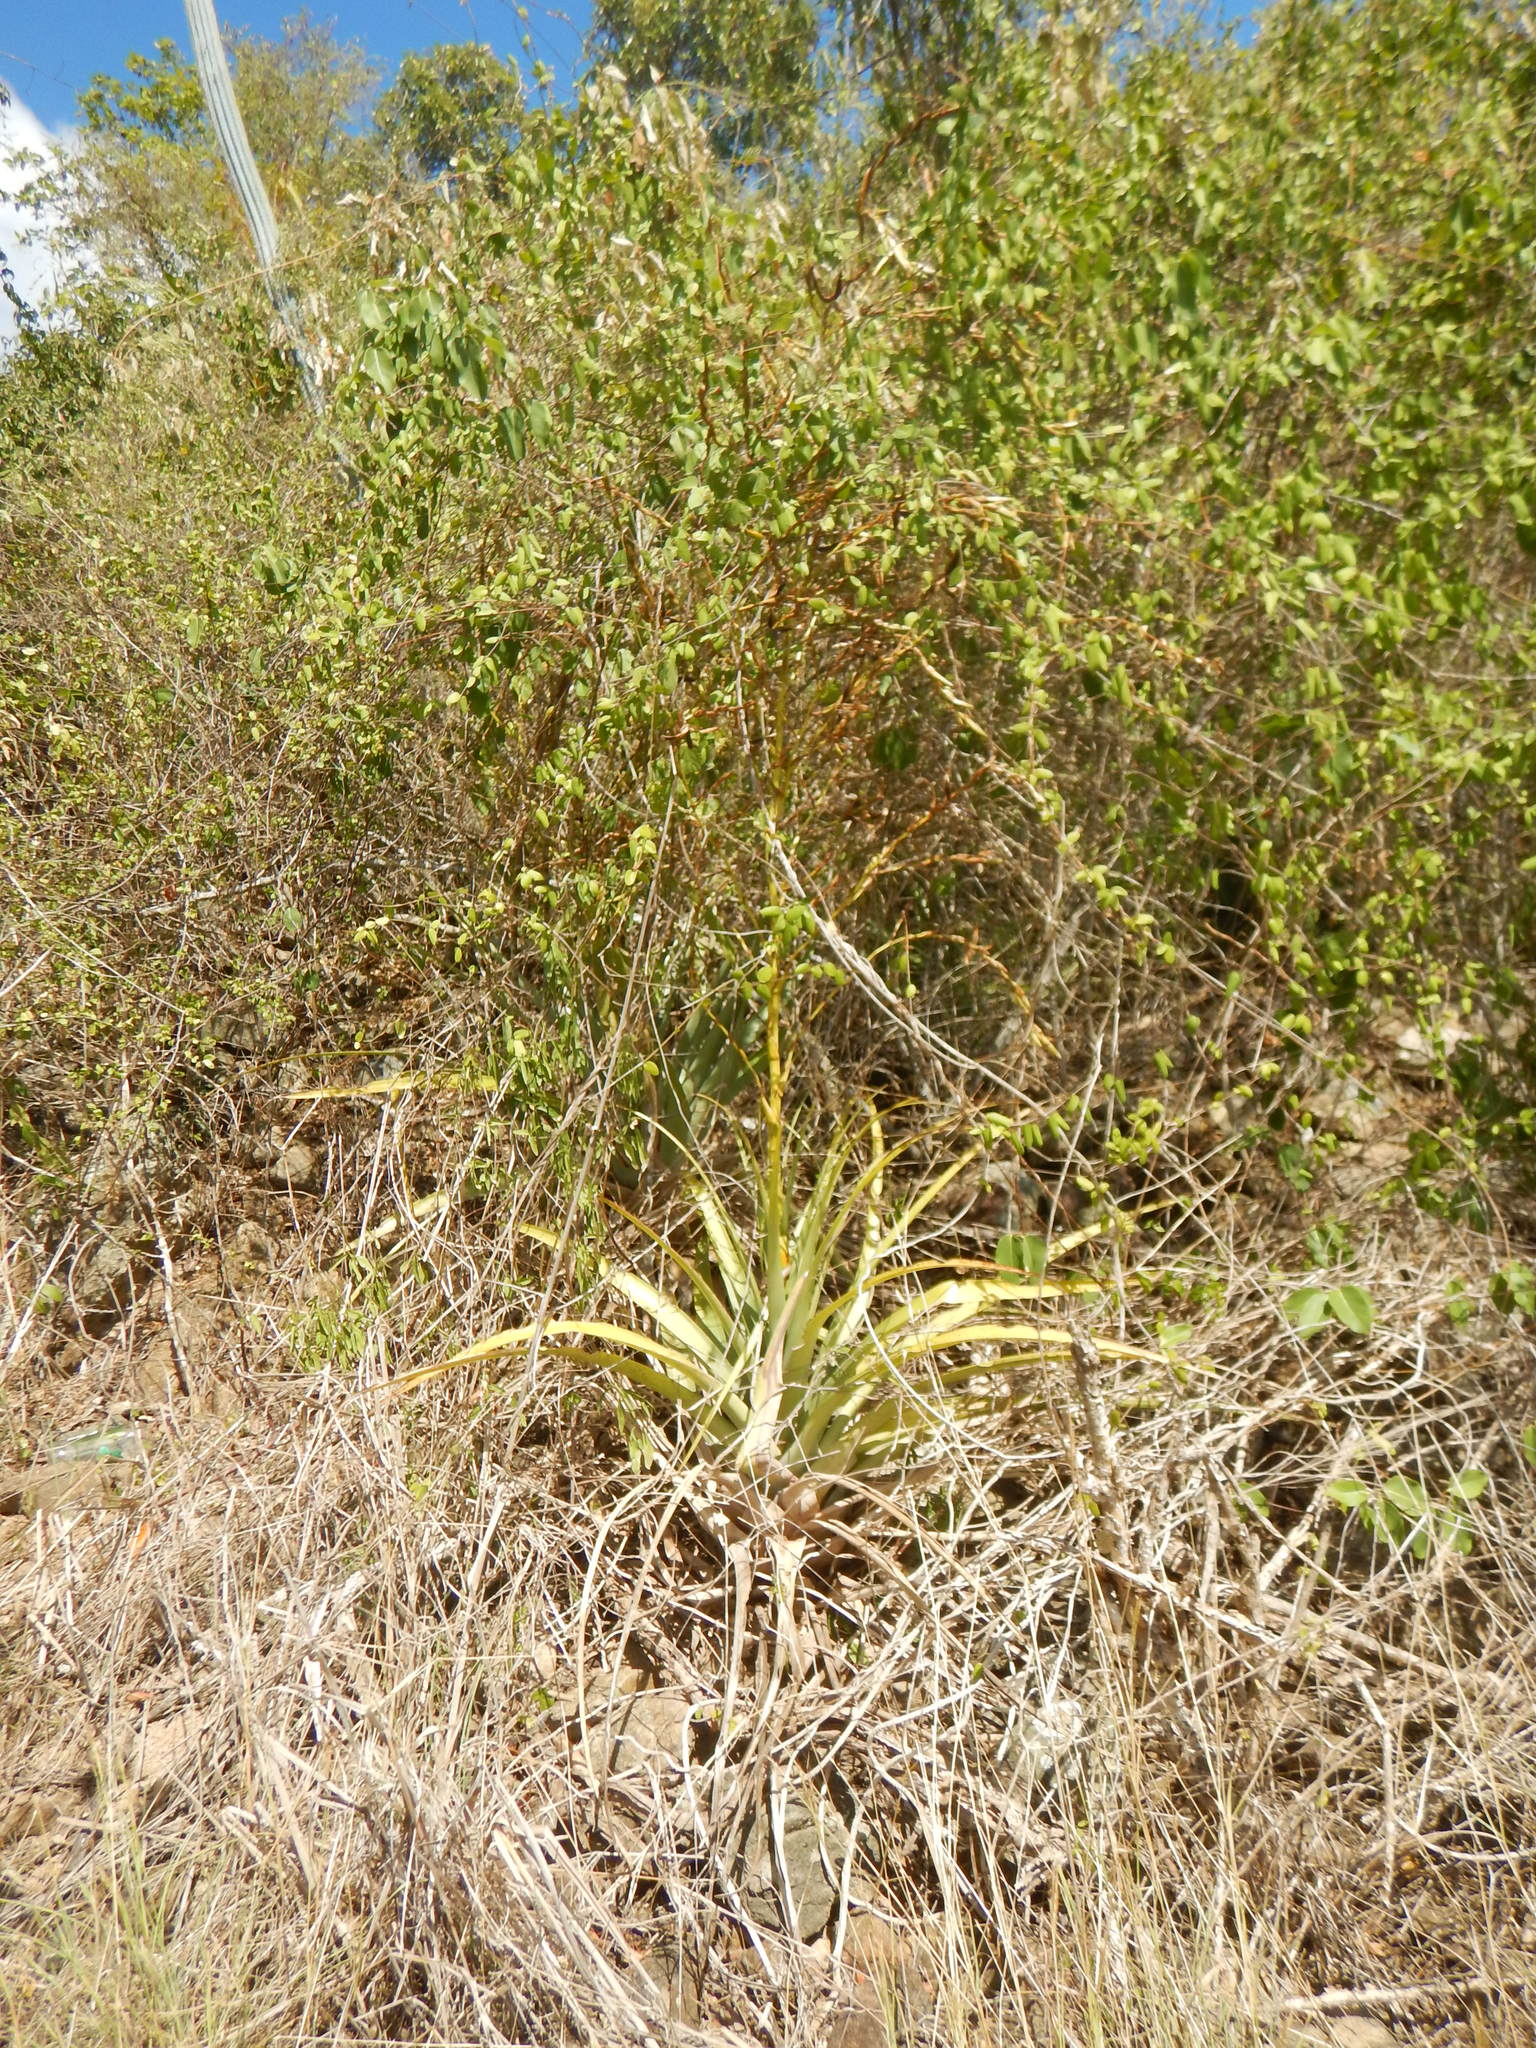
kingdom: Plantae
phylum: Tracheophyta
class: Liliopsida
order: Poales
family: Bromeliaceae
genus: Tillandsia
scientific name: Tillandsia utriculata
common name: Wild pine
